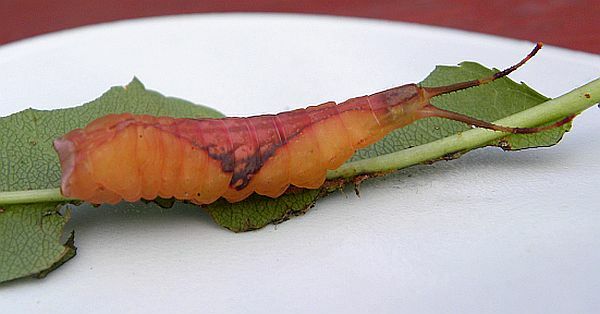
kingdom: Animalia
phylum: Arthropoda
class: Insecta
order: Lepidoptera
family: Notodontidae
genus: Furcula
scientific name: Furcula borealis
